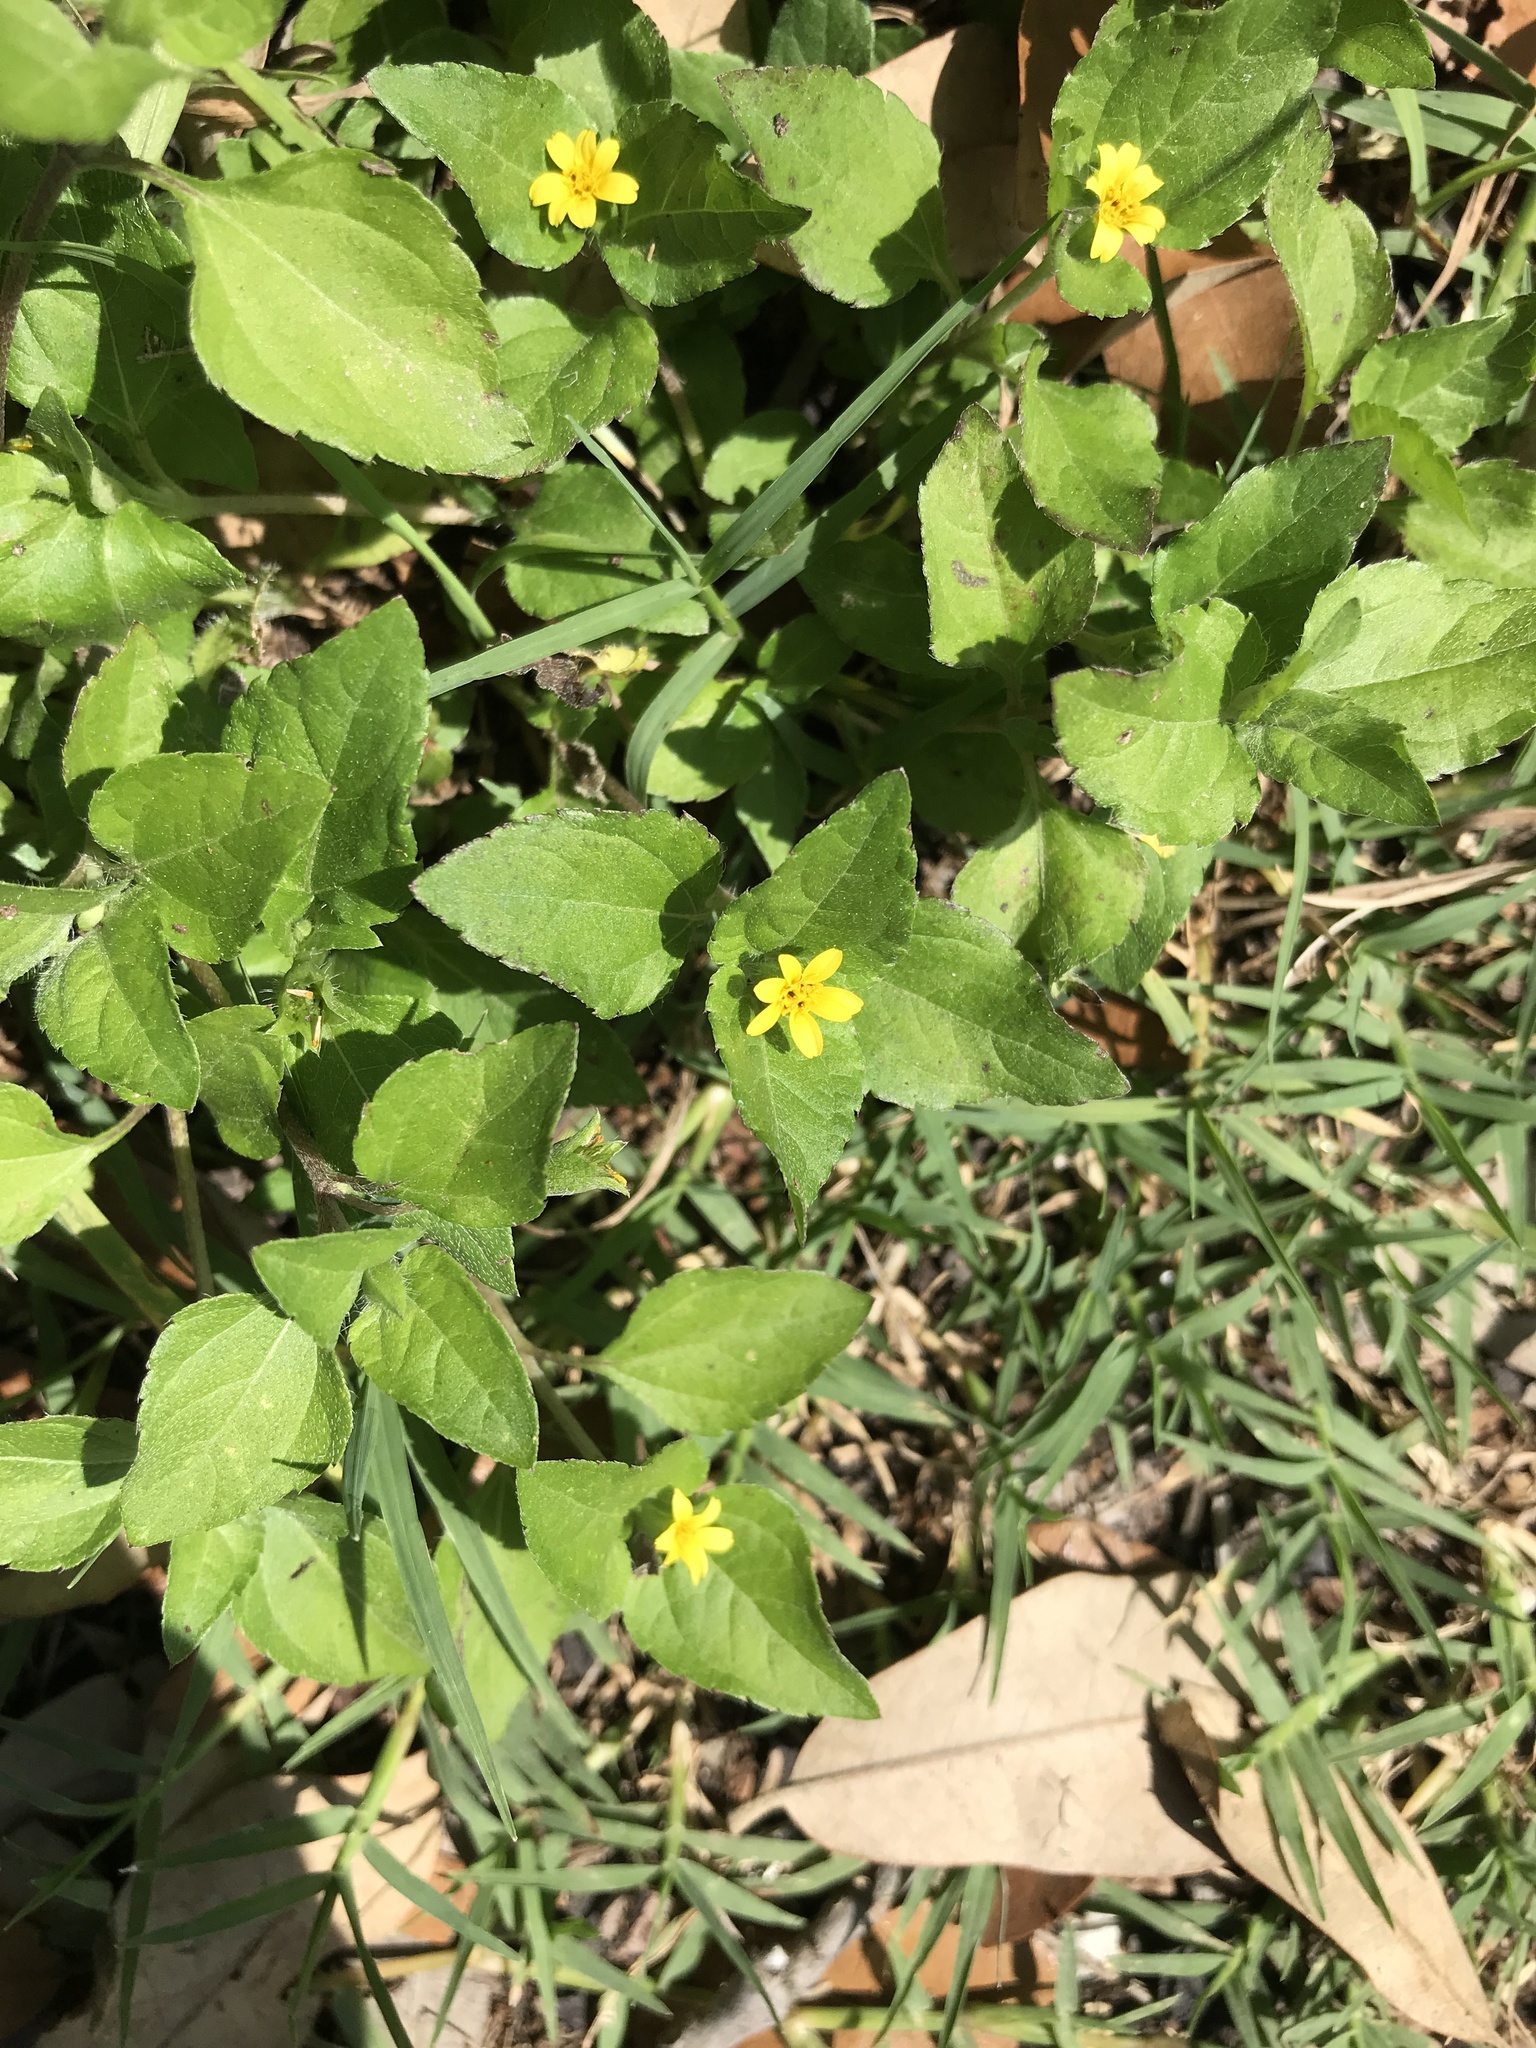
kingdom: Plantae
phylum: Tracheophyta
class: Magnoliopsida
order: Asterales
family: Asteraceae
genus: Calyptocarpus
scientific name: Calyptocarpus vialis
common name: Straggler daisy
